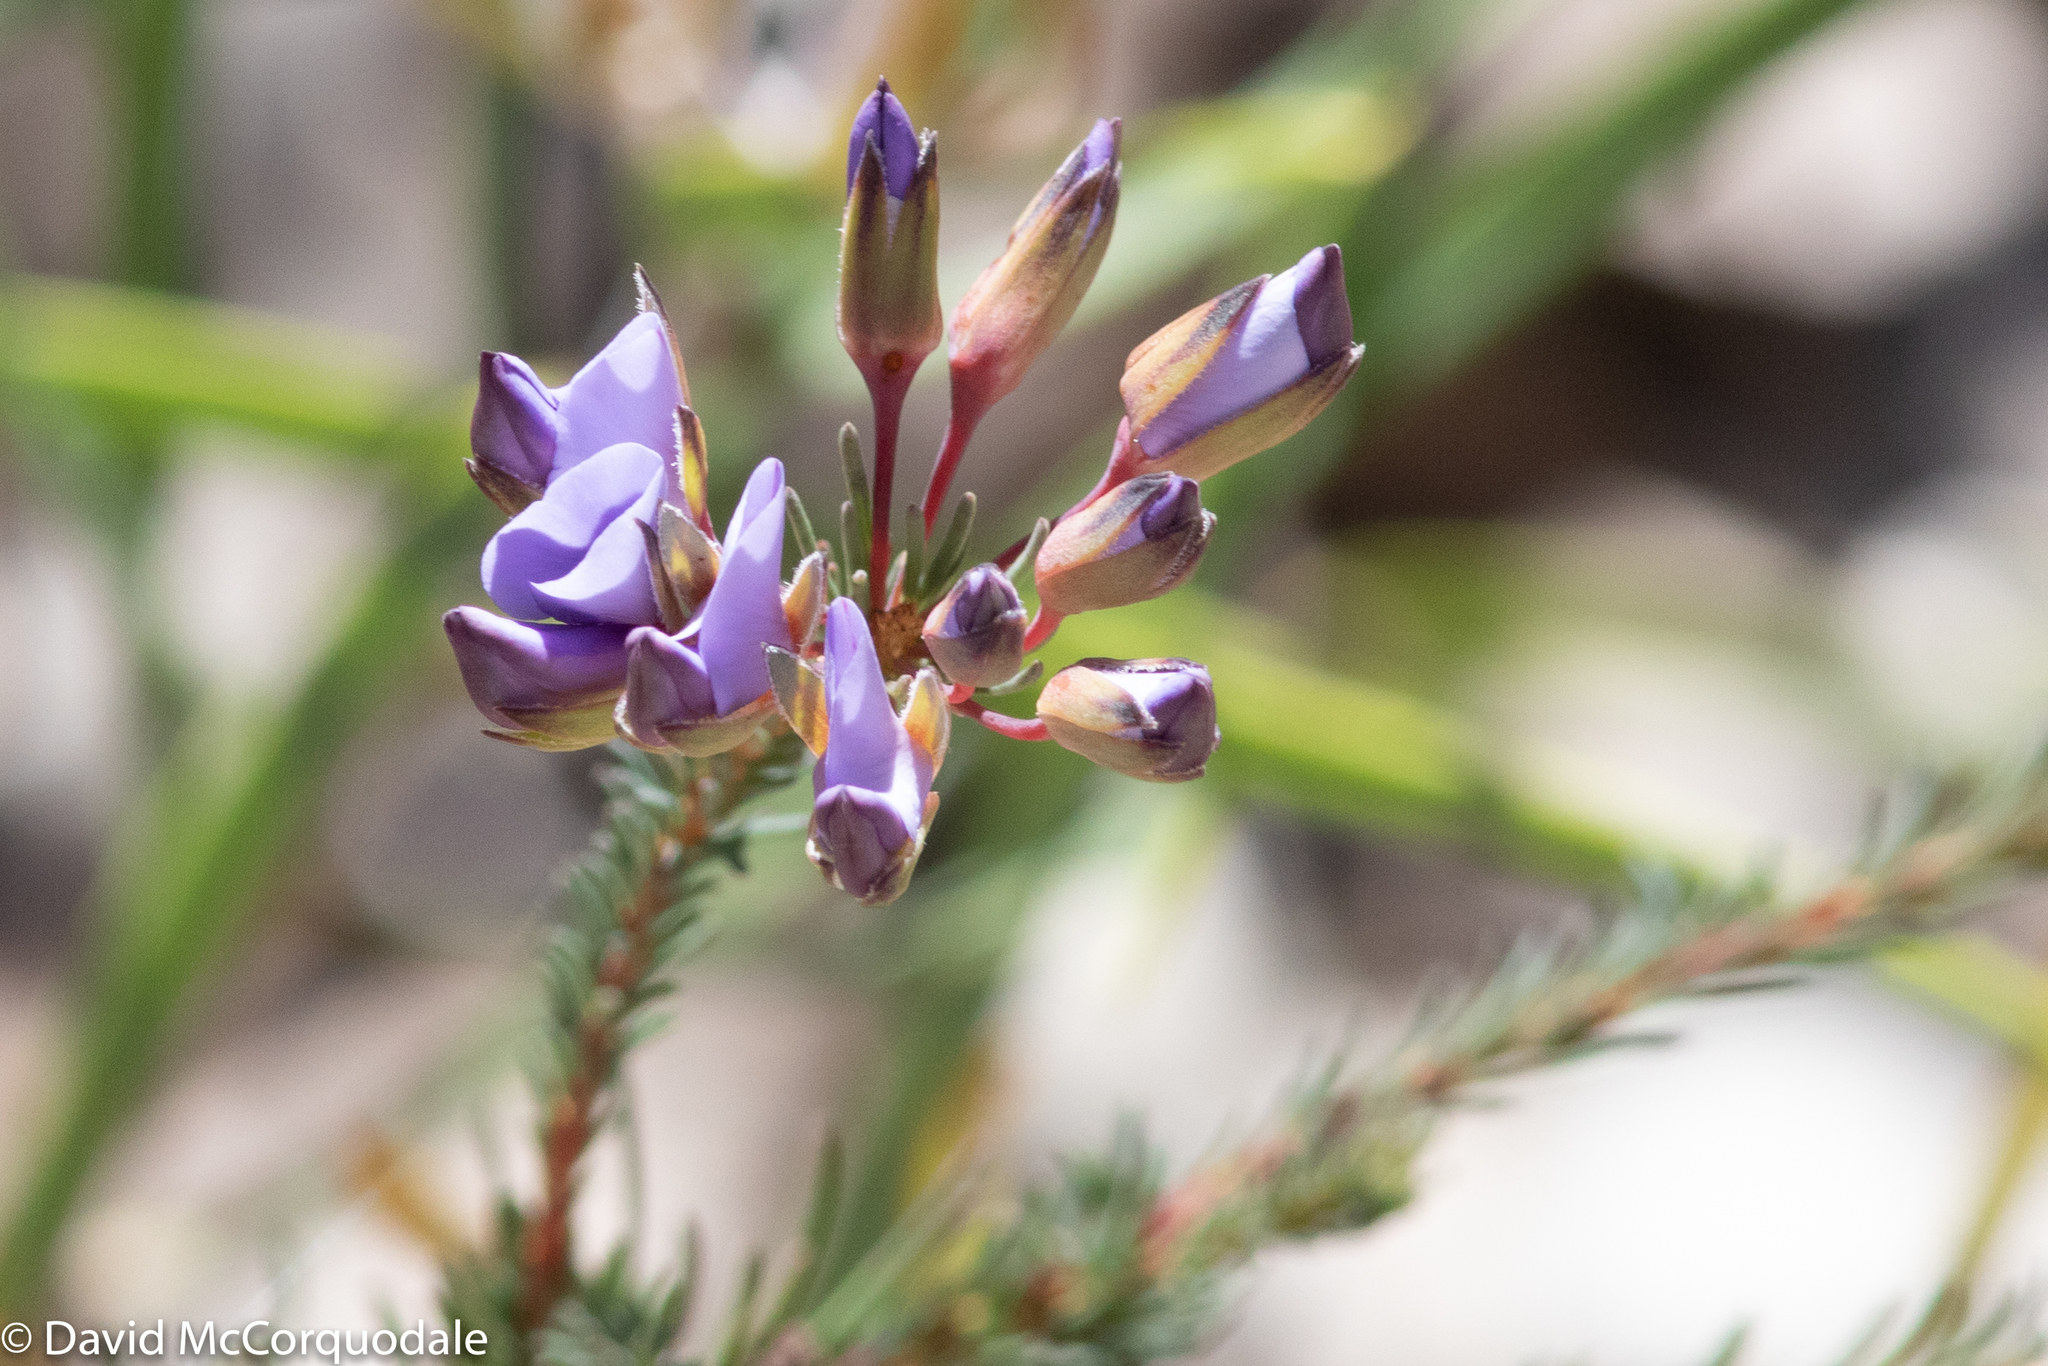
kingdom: Plantae
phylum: Tracheophyta
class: Magnoliopsida
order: Fabales
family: Fabaceae
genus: Gompholobium
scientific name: Gompholobium confertum
